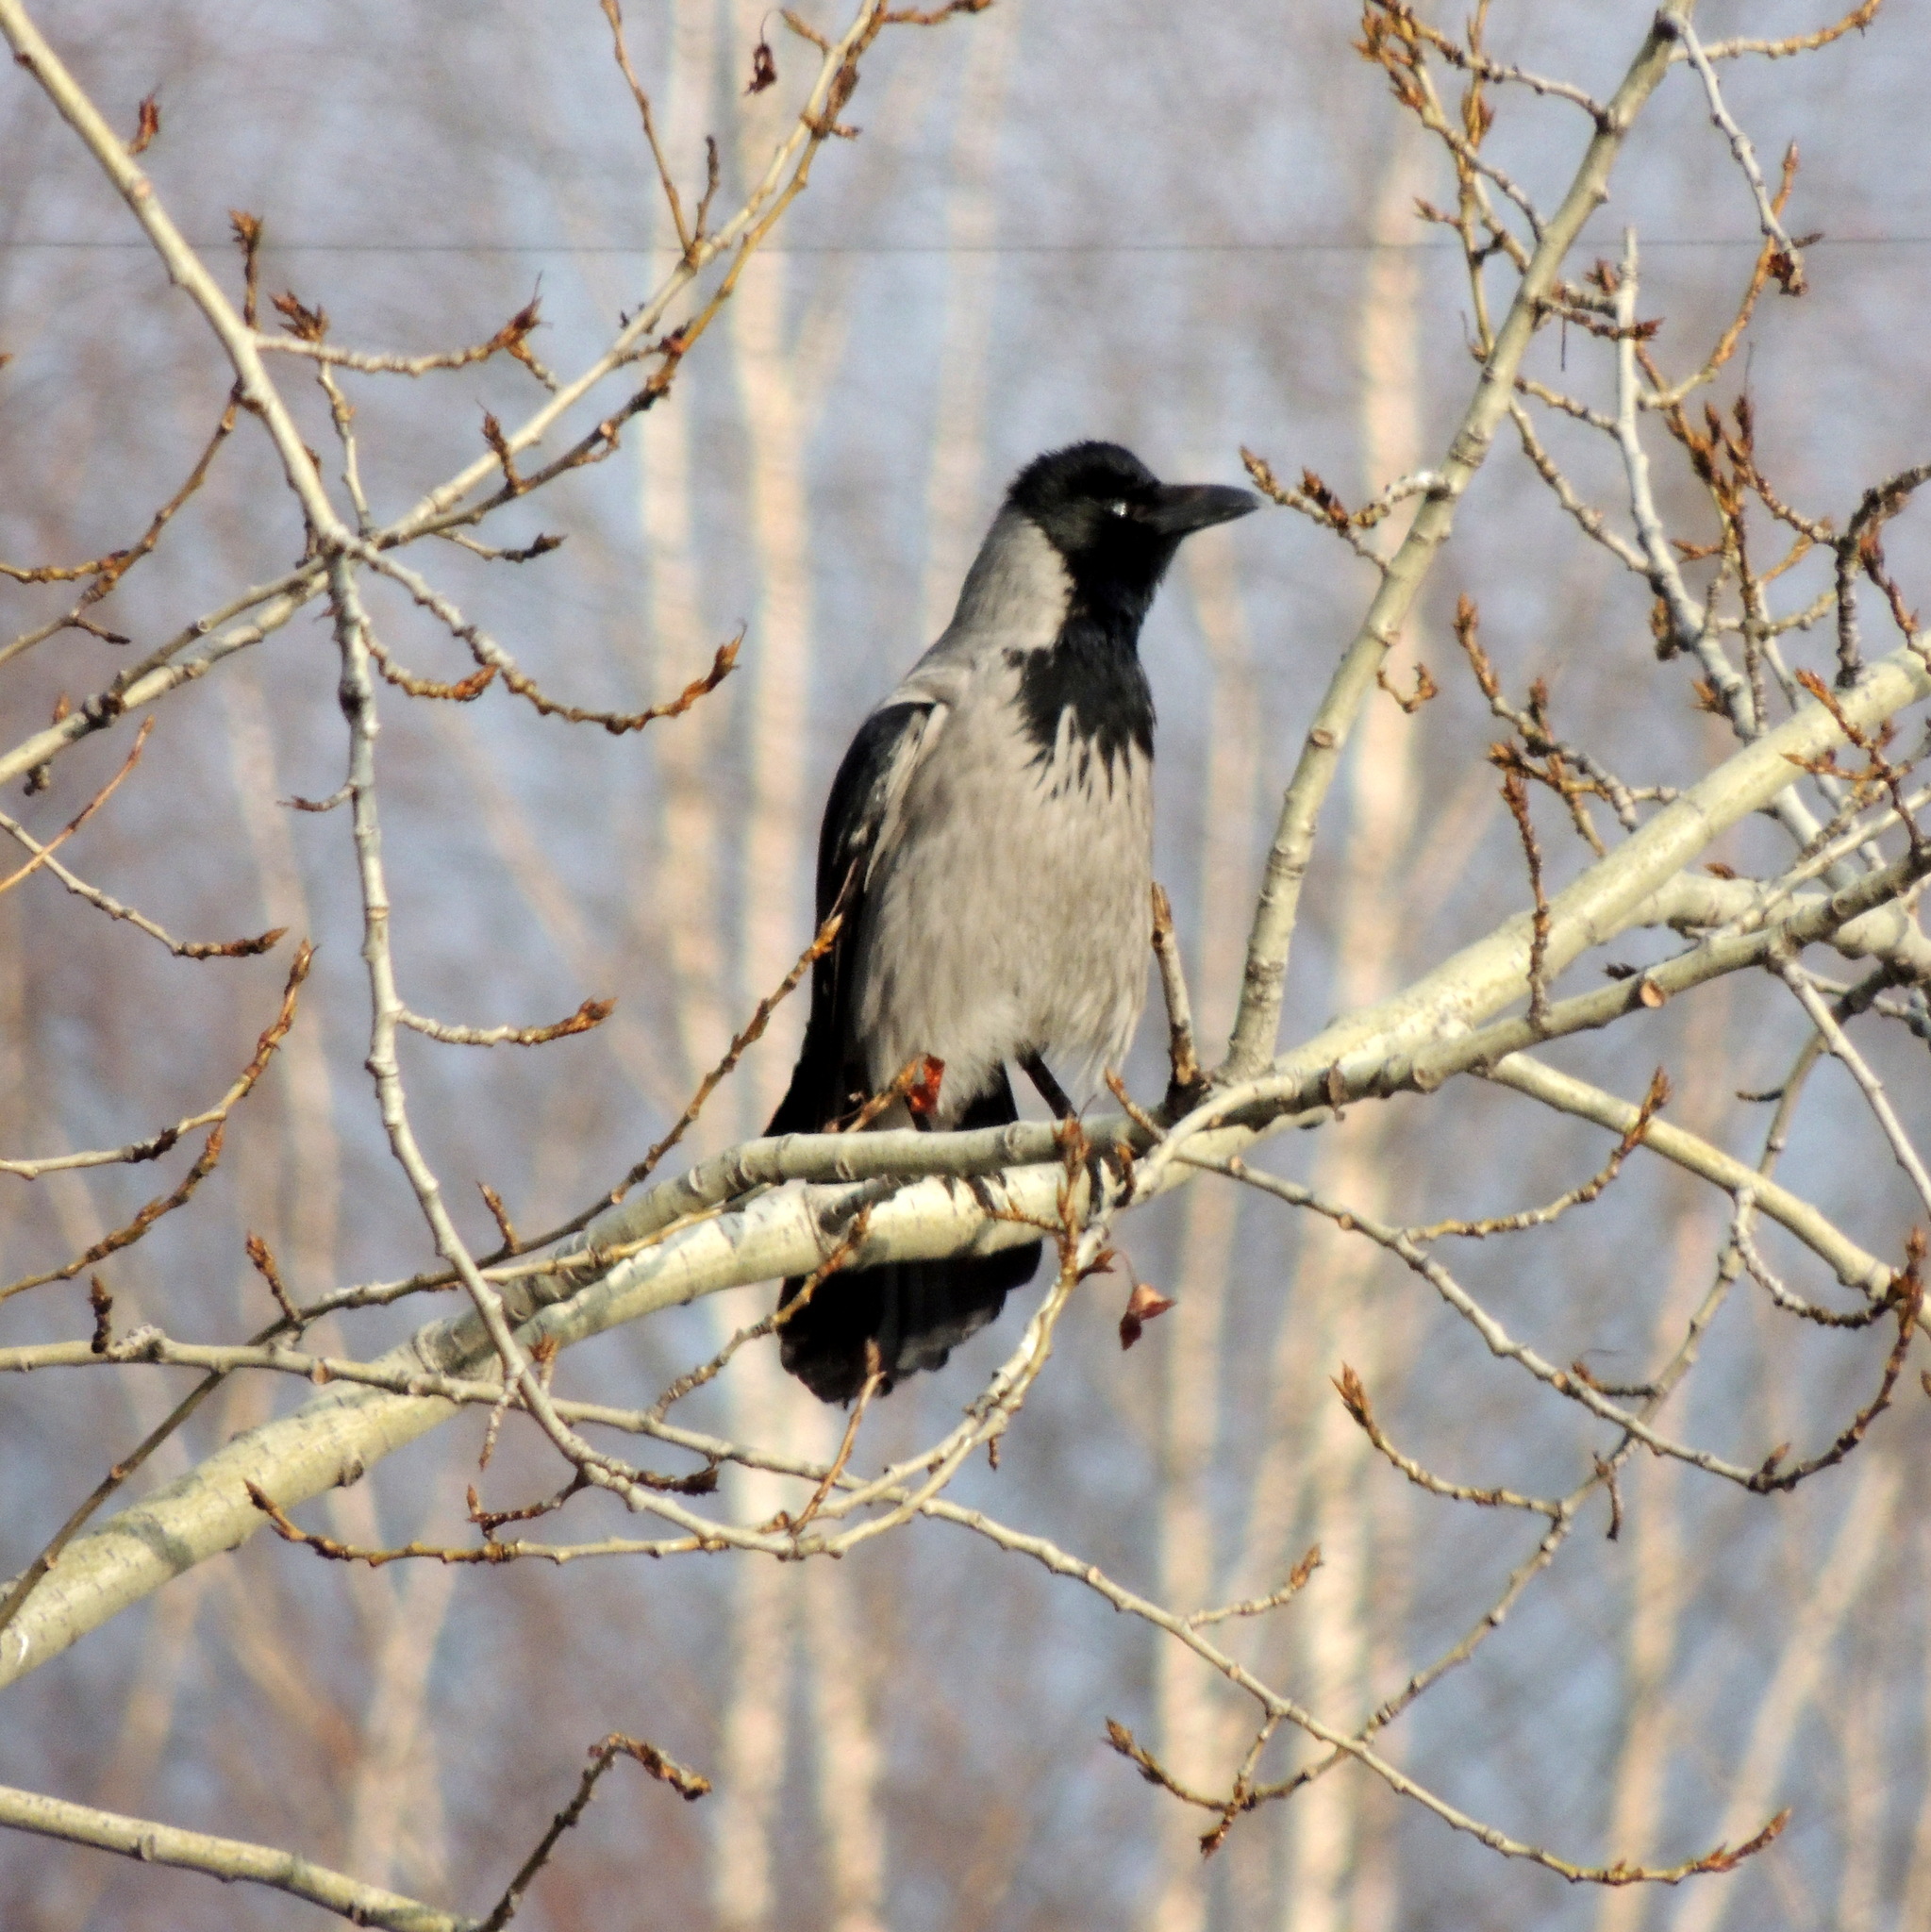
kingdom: Animalia
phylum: Chordata
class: Aves
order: Passeriformes
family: Corvidae
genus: Corvus
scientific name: Corvus cornix
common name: Hooded crow
